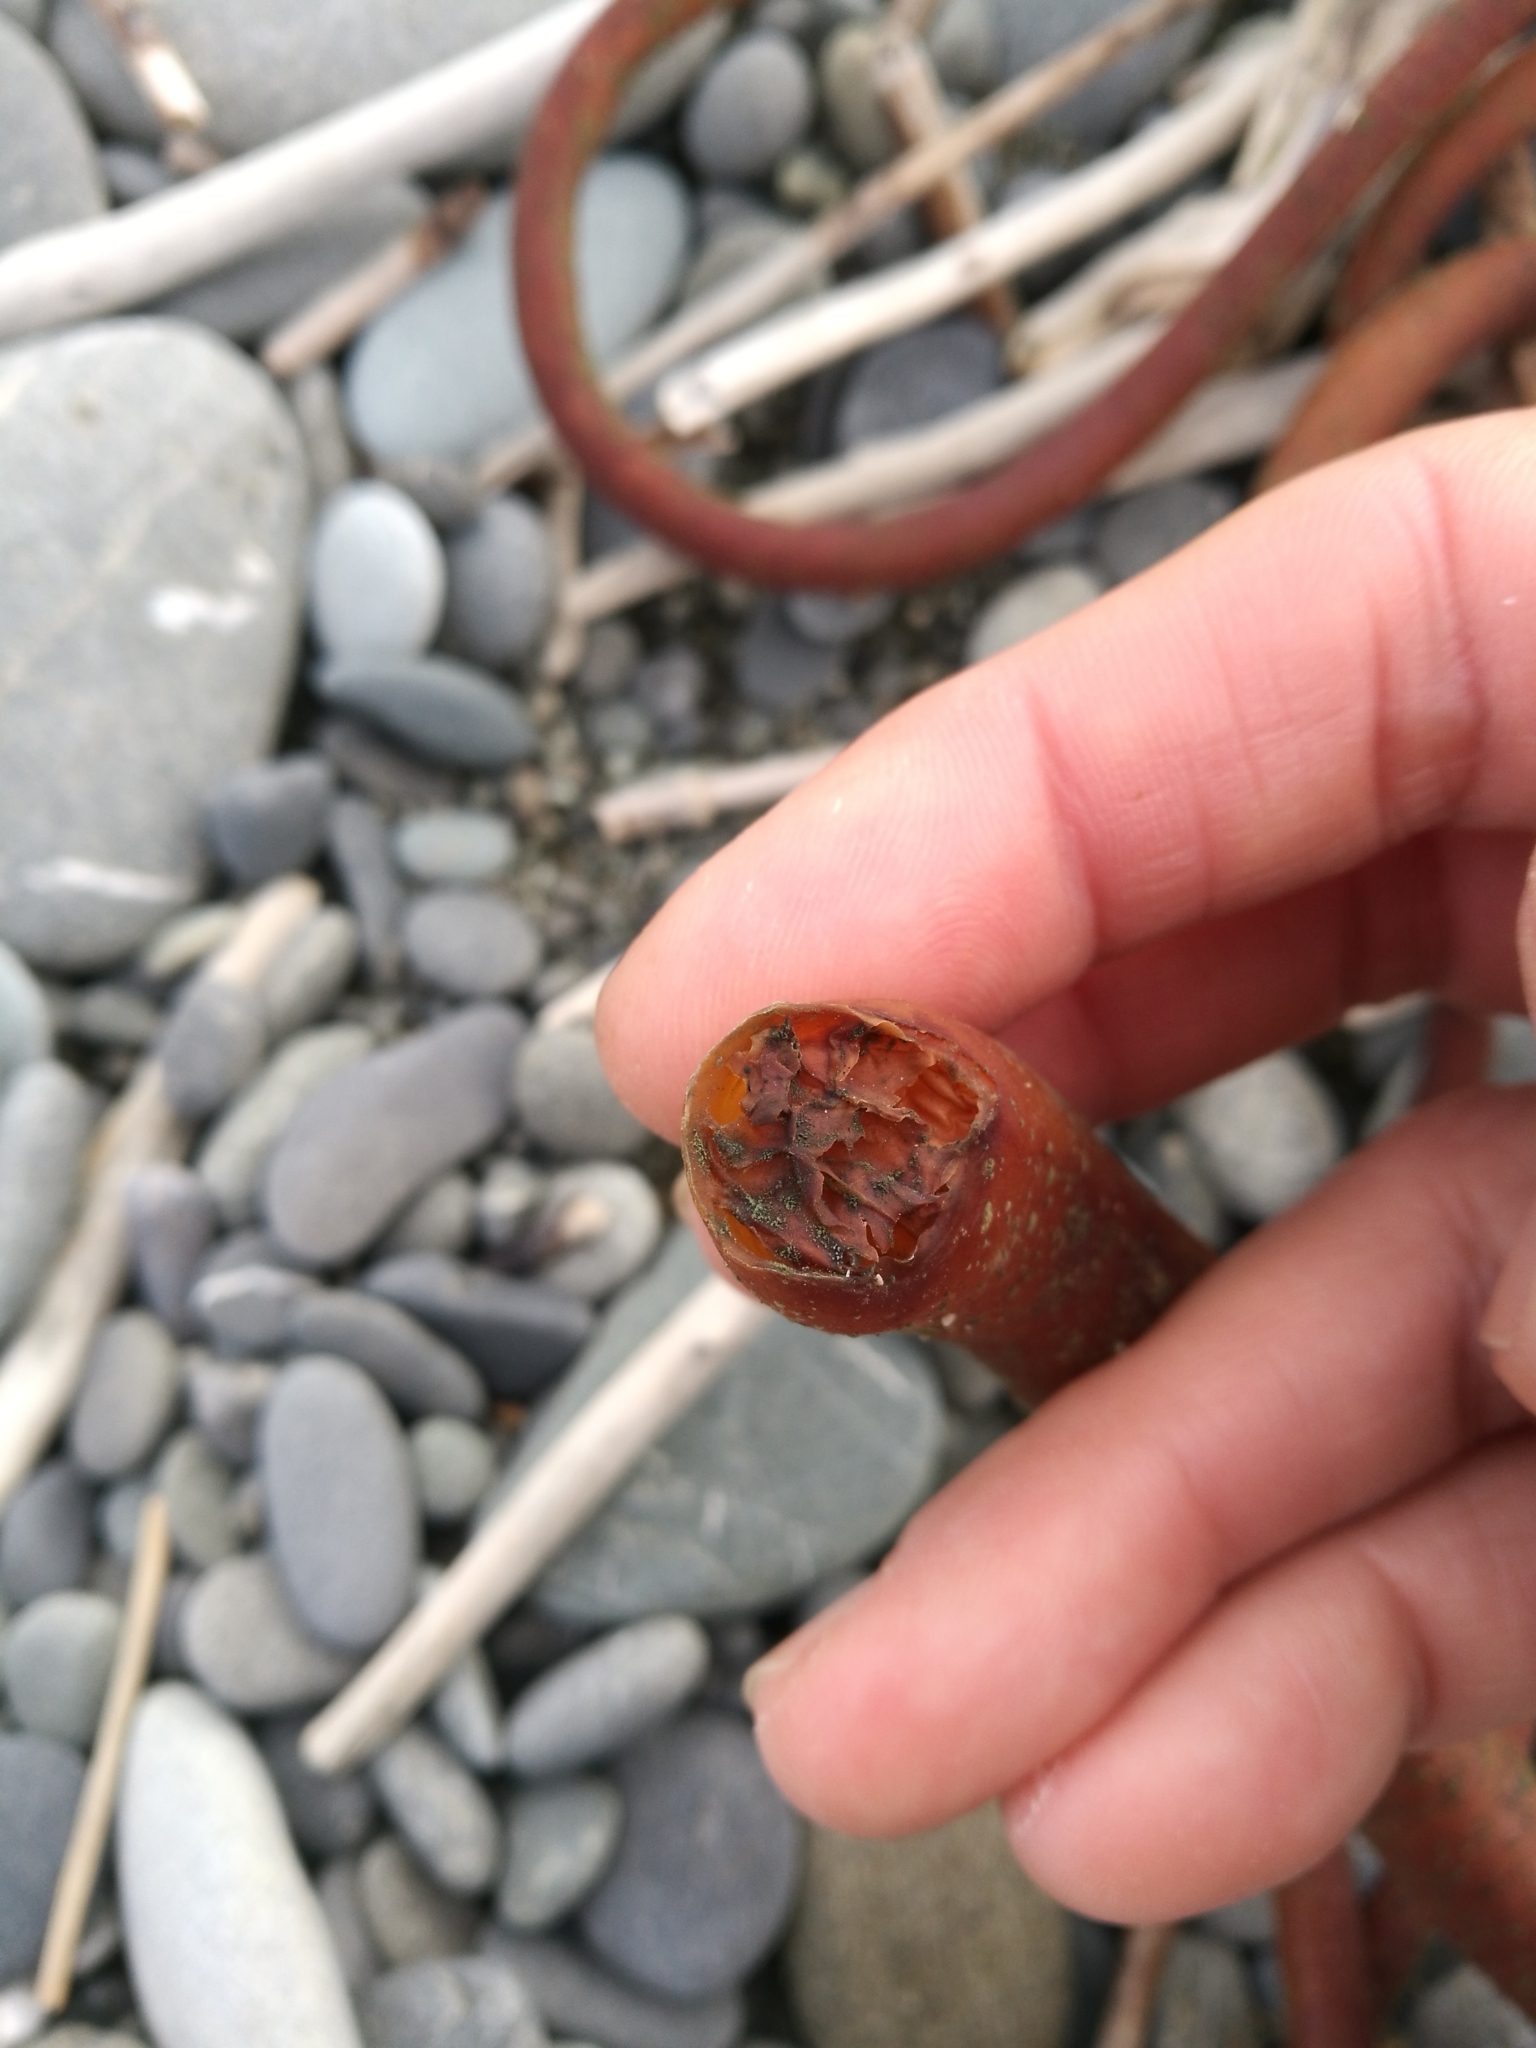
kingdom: Chromista
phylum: Ochrophyta
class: Phaeophyceae
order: Fucales
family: Durvillaeaceae
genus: Durvillaea
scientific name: Durvillaea antarctica
